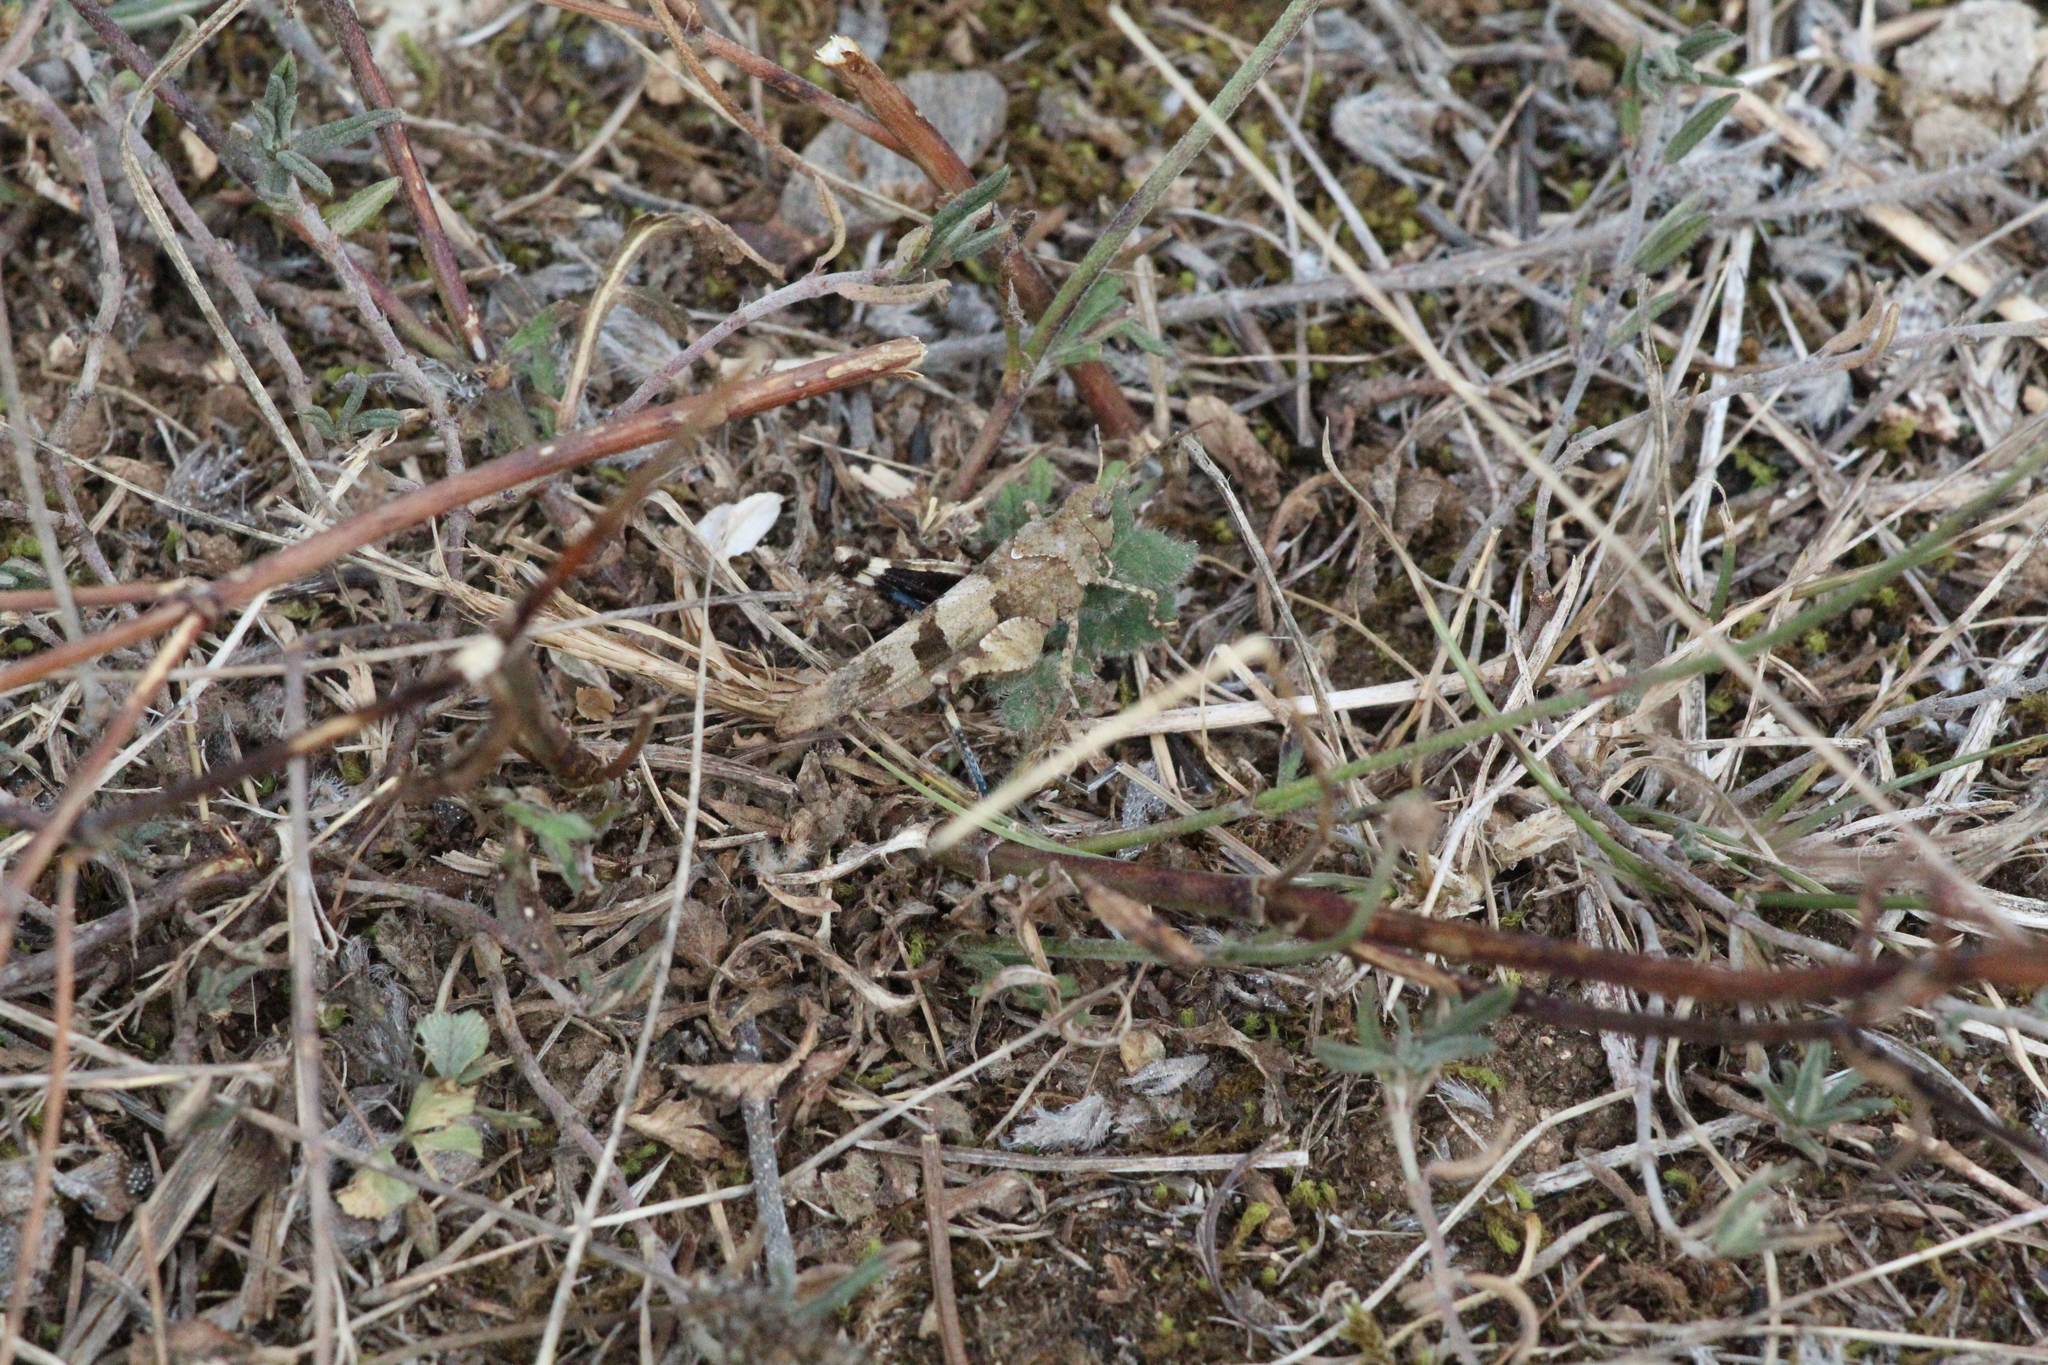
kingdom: Animalia
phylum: Arthropoda
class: Insecta
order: Orthoptera
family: Acrididae
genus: Oedipoda
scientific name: Oedipoda caerulescens
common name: Blue-winged grasshopper
